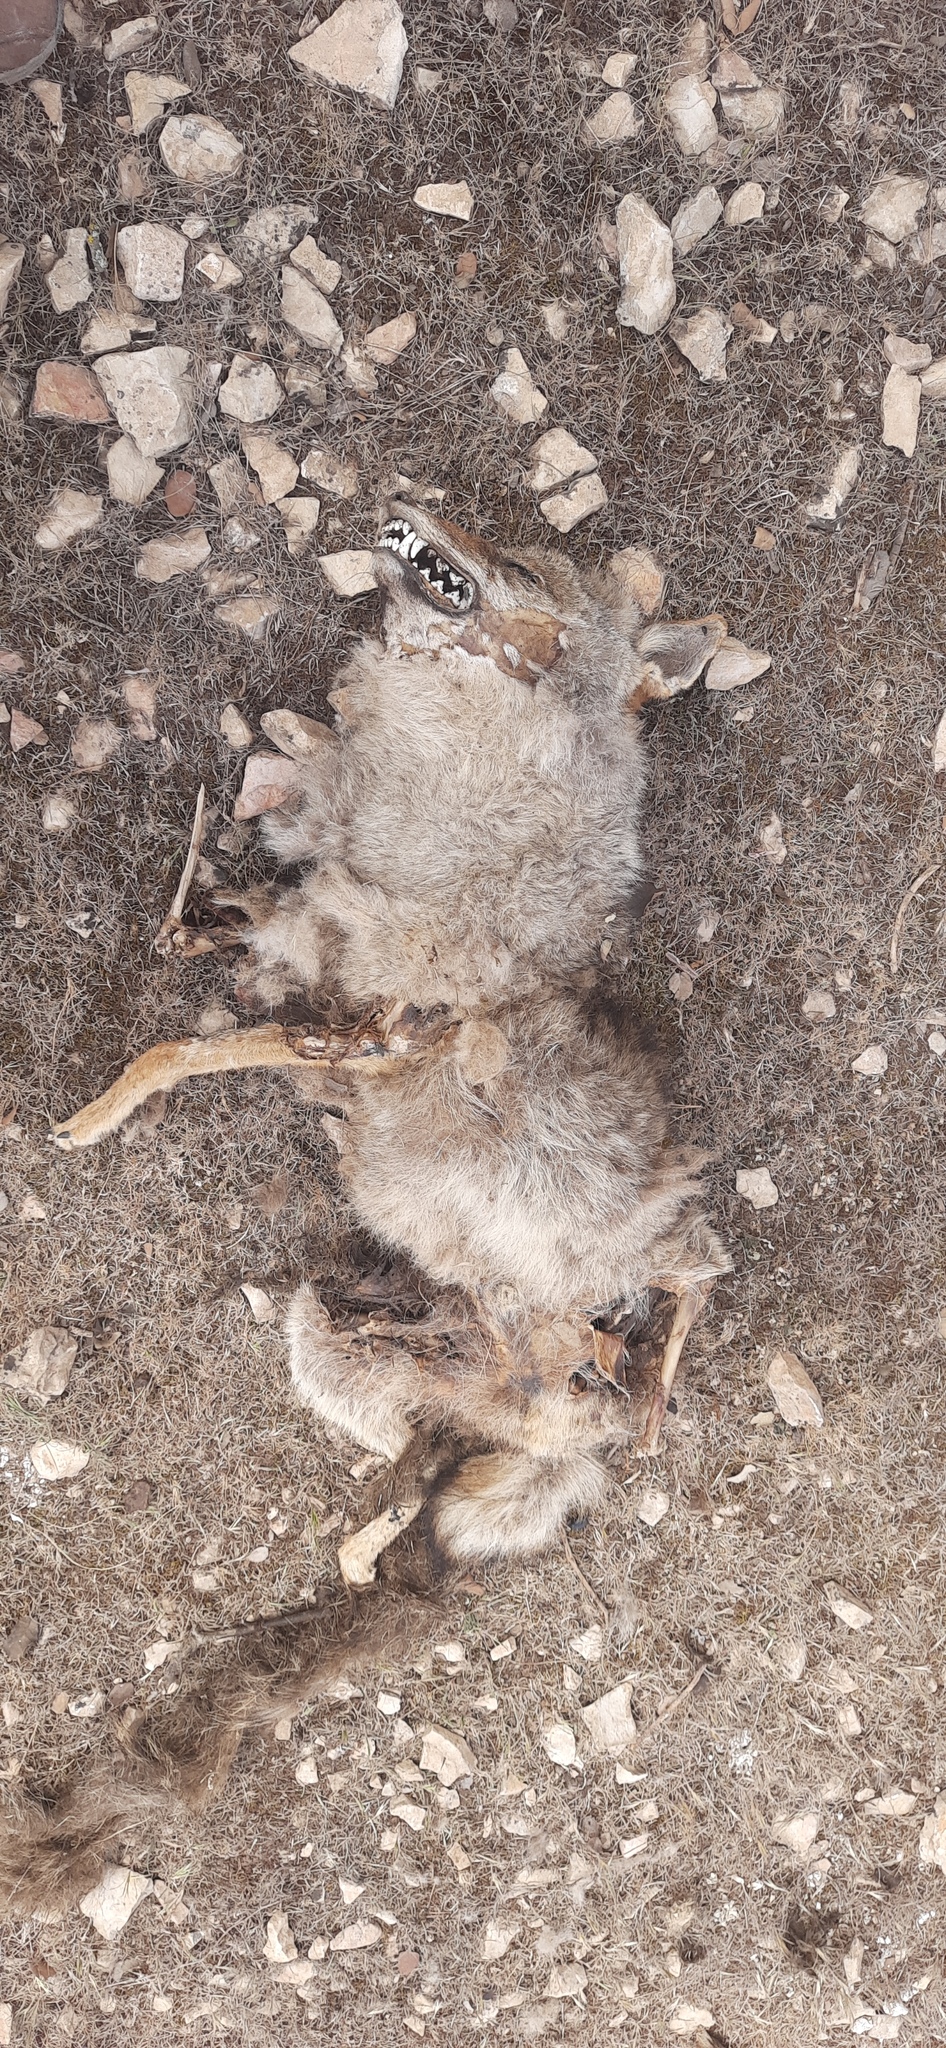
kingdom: Animalia
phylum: Chordata
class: Mammalia
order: Carnivora
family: Canidae
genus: Canis
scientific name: Canis lupaster
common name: African golden wolf
